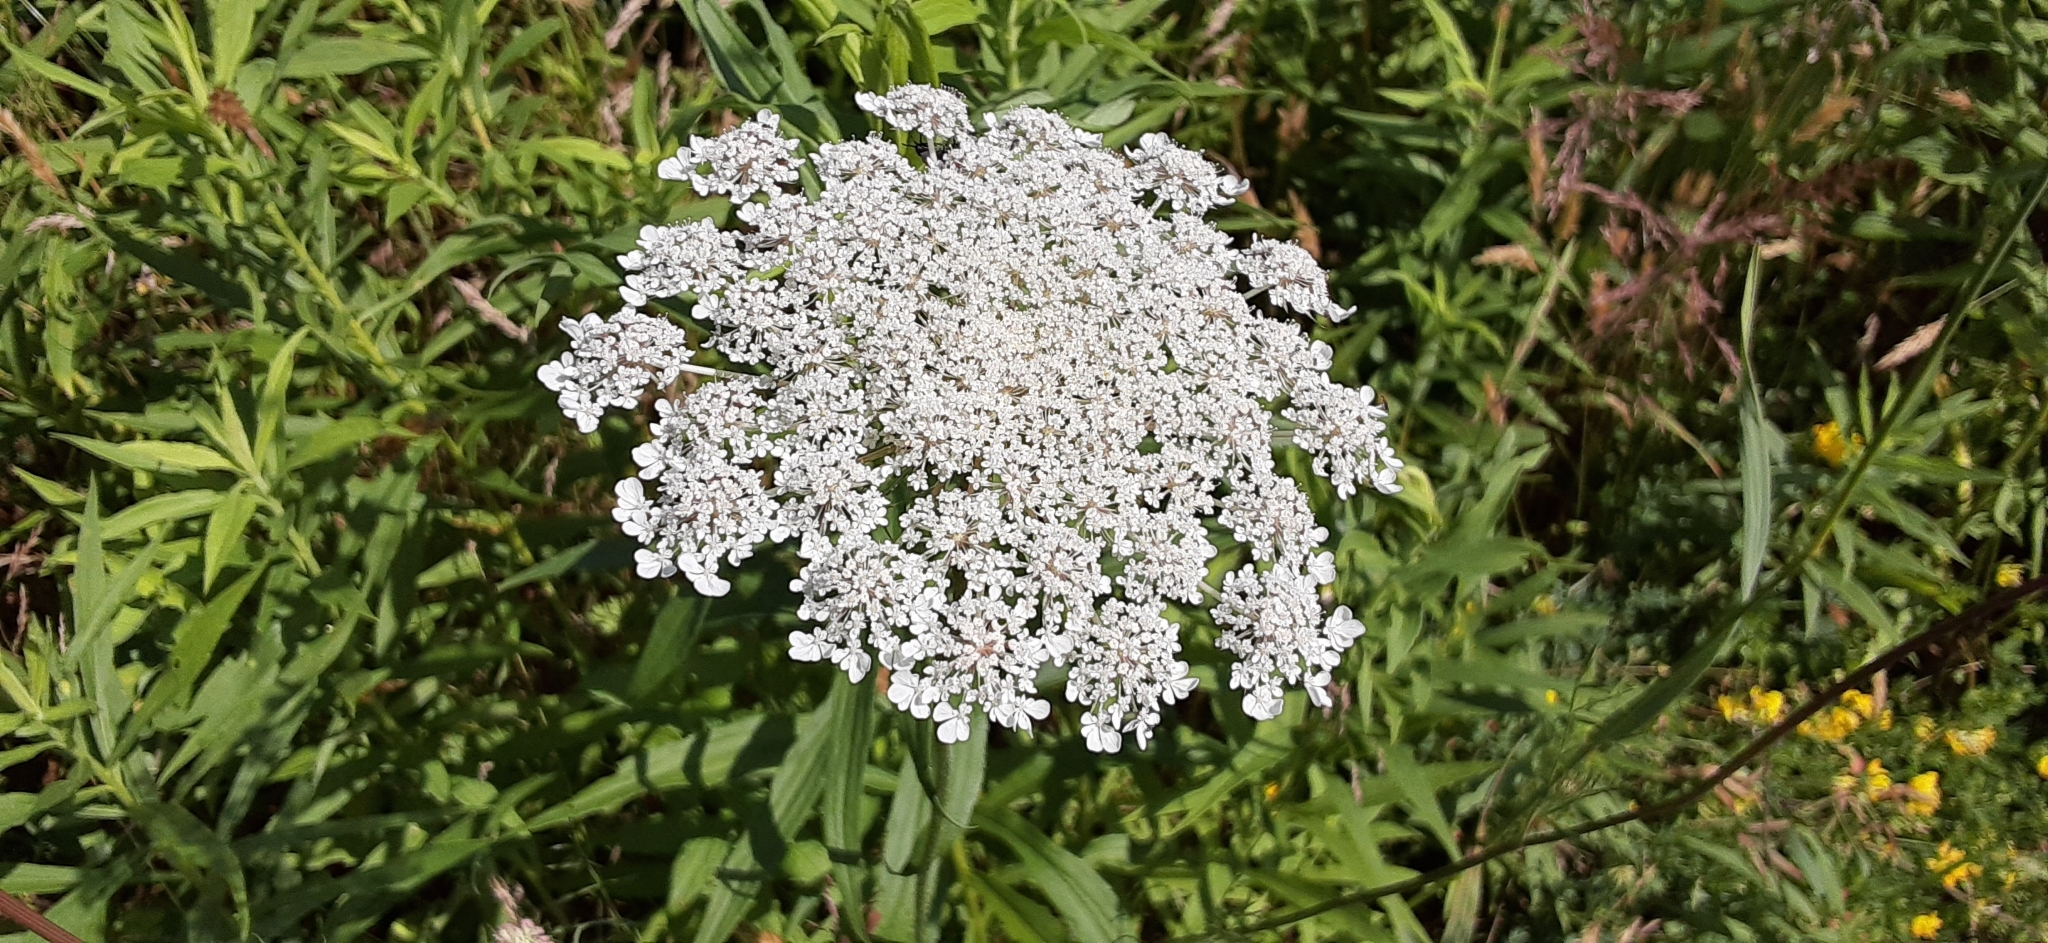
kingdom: Plantae
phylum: Tracheophyta
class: Magnoliopsida
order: Apiales
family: Apiaceae
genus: Daucus
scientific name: Daucus carota
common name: Wild carrot
